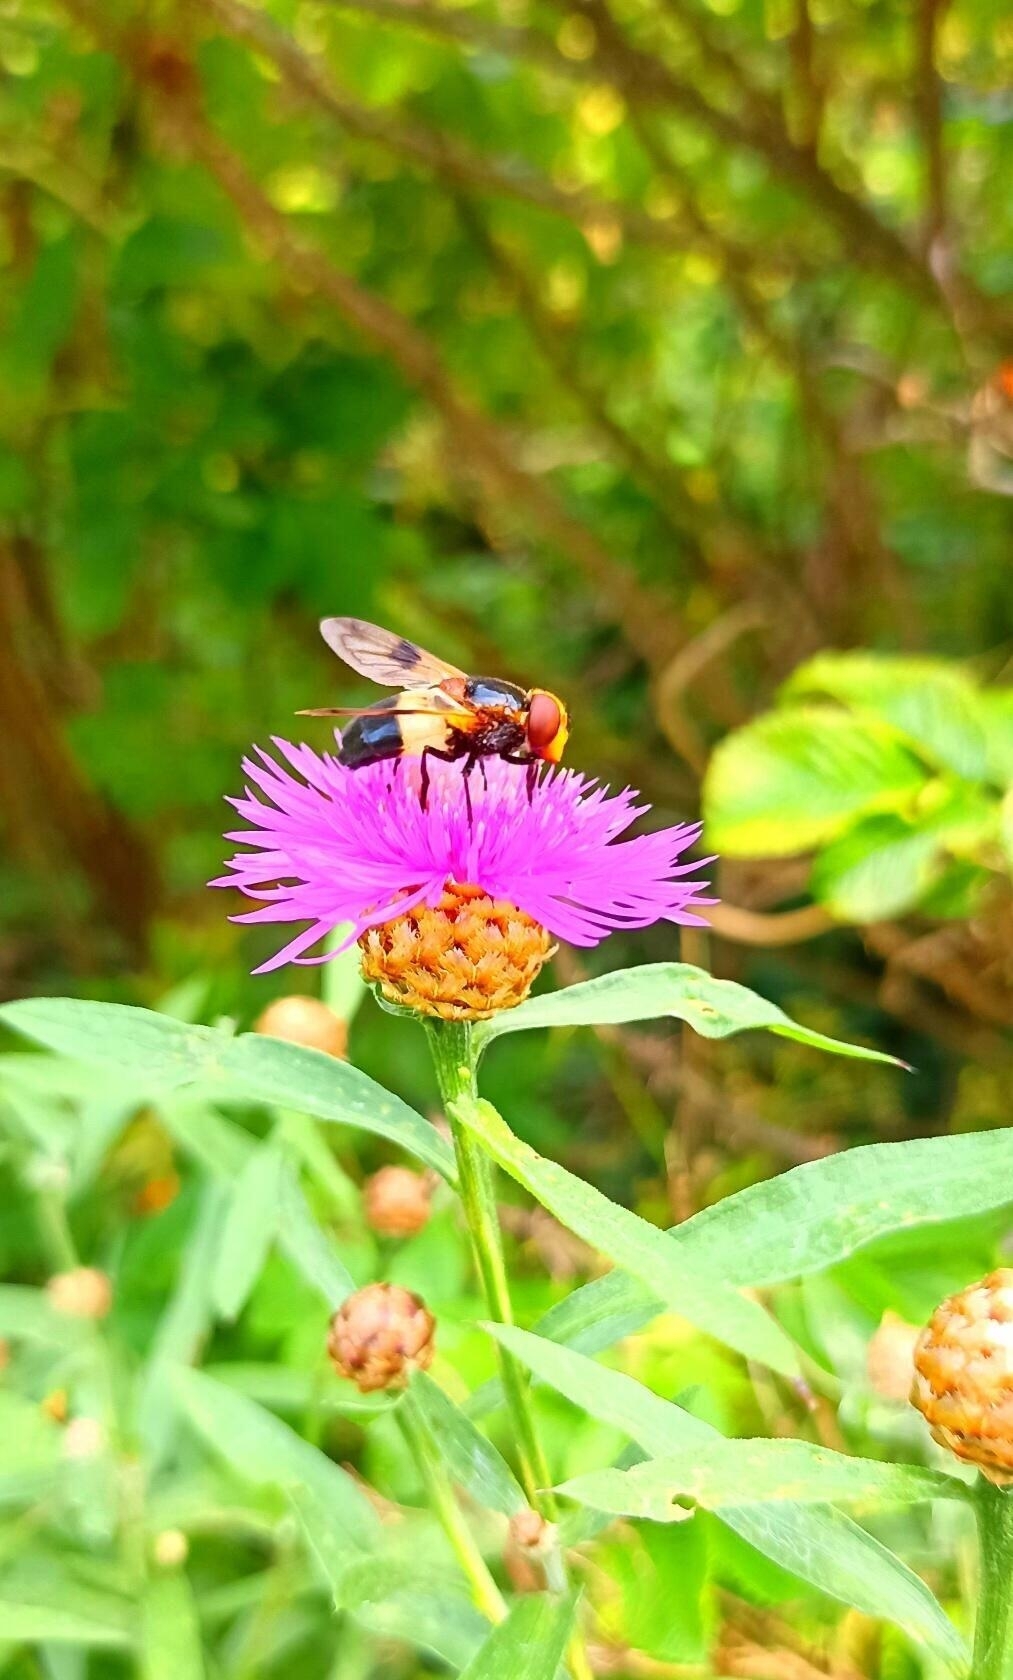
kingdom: Animalia
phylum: Arthropoda
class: Insecta
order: Diptera
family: Syrphidae
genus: Volucella
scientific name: Volucella pellucens
